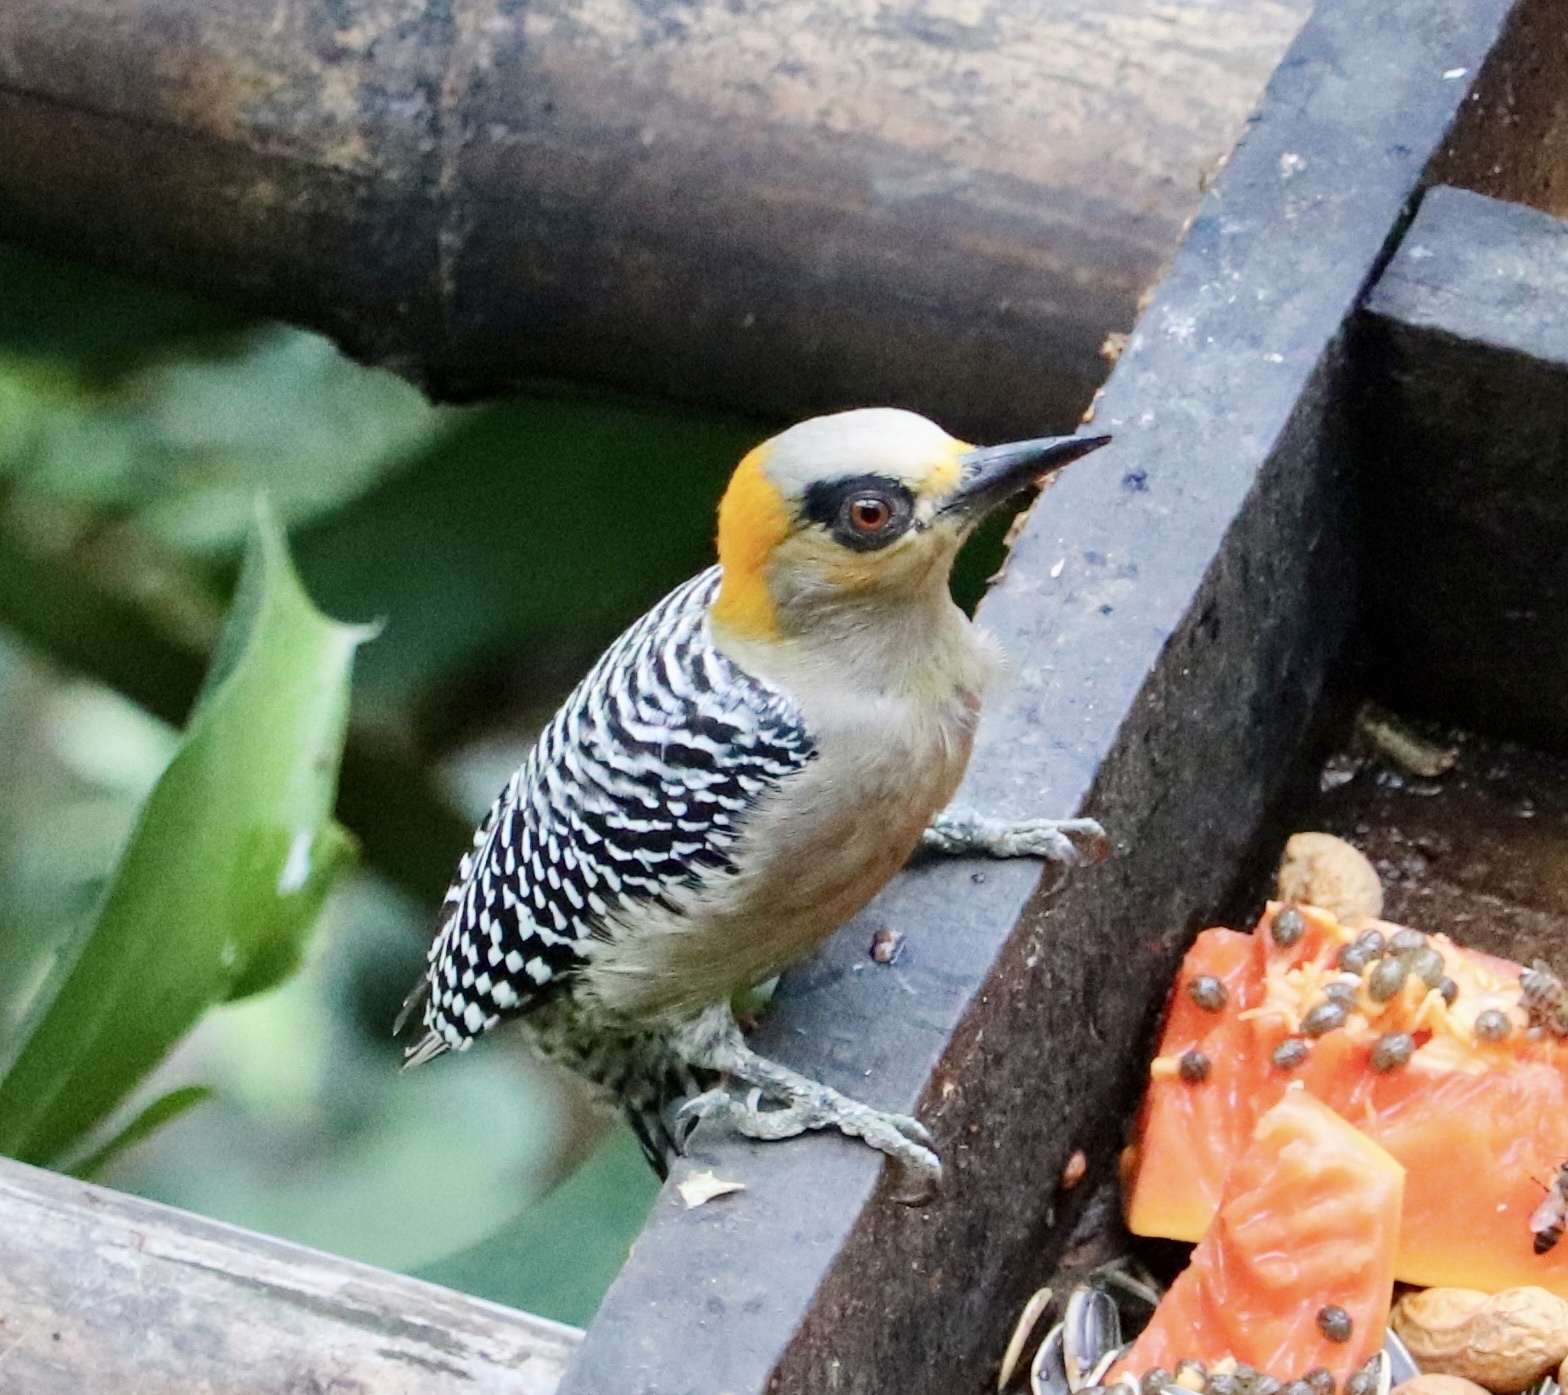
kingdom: Animalia
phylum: Chordata
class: Aves
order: Piciformes
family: Picidae
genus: Melanerpes
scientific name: Melanerpes chrysogenys
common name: Golden-cheeked woodpecker
